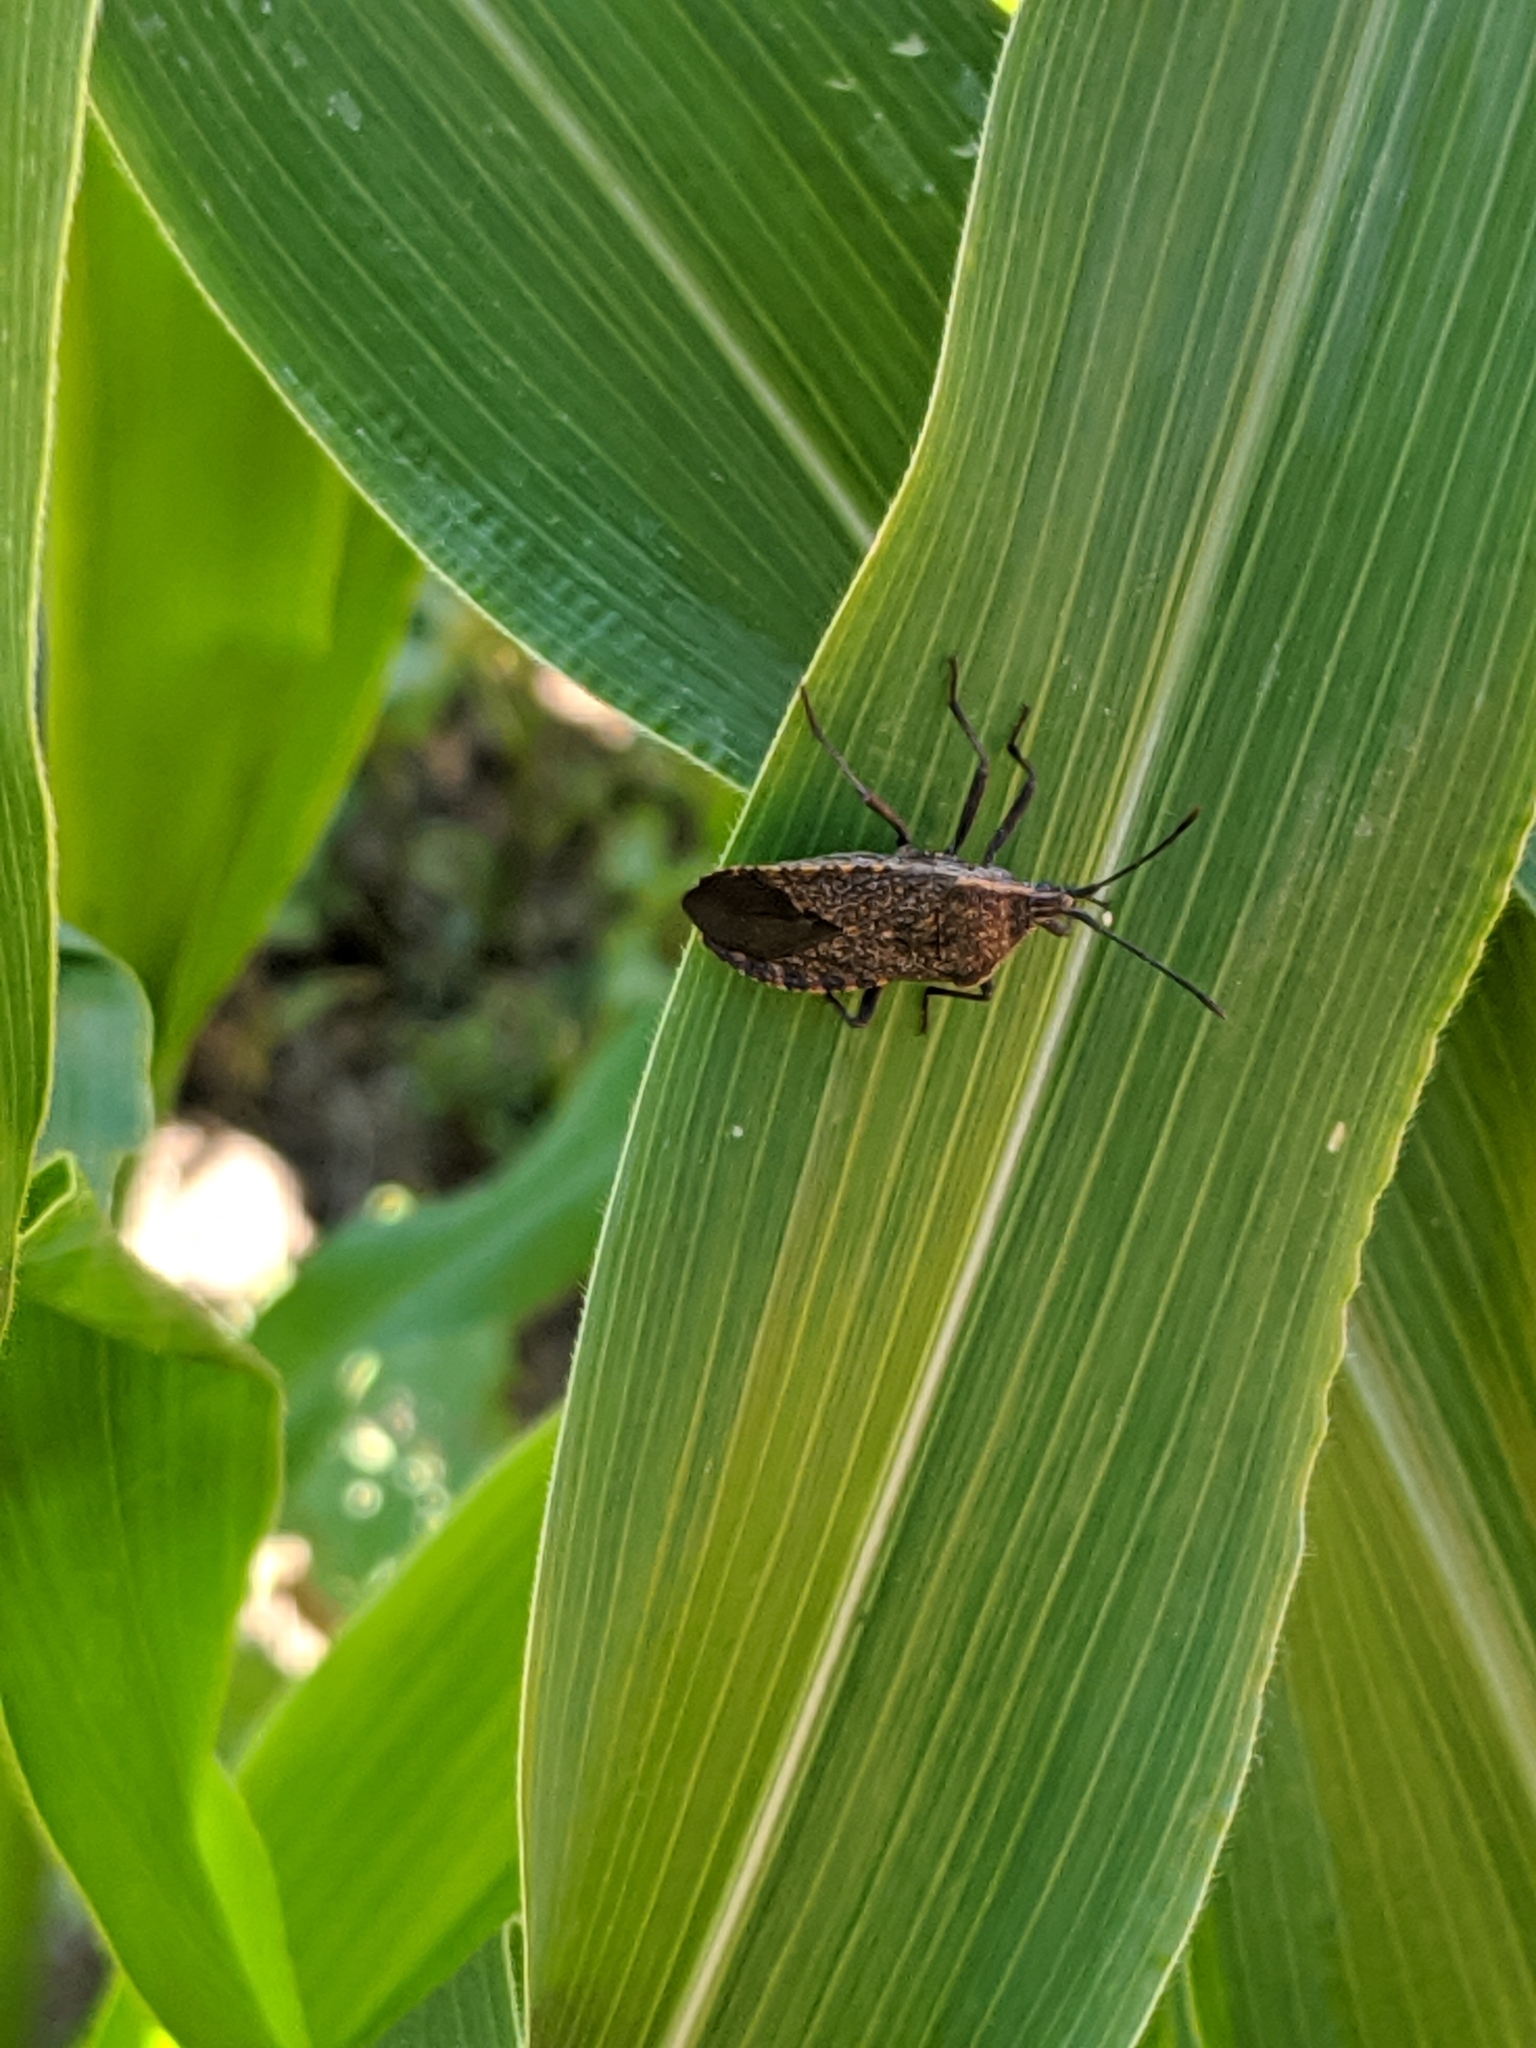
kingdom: Animalia
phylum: Arthropoda
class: Insecta
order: Hemiptera
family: Coreidae
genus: Anasa
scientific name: Anasa tristis
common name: Squash bug
